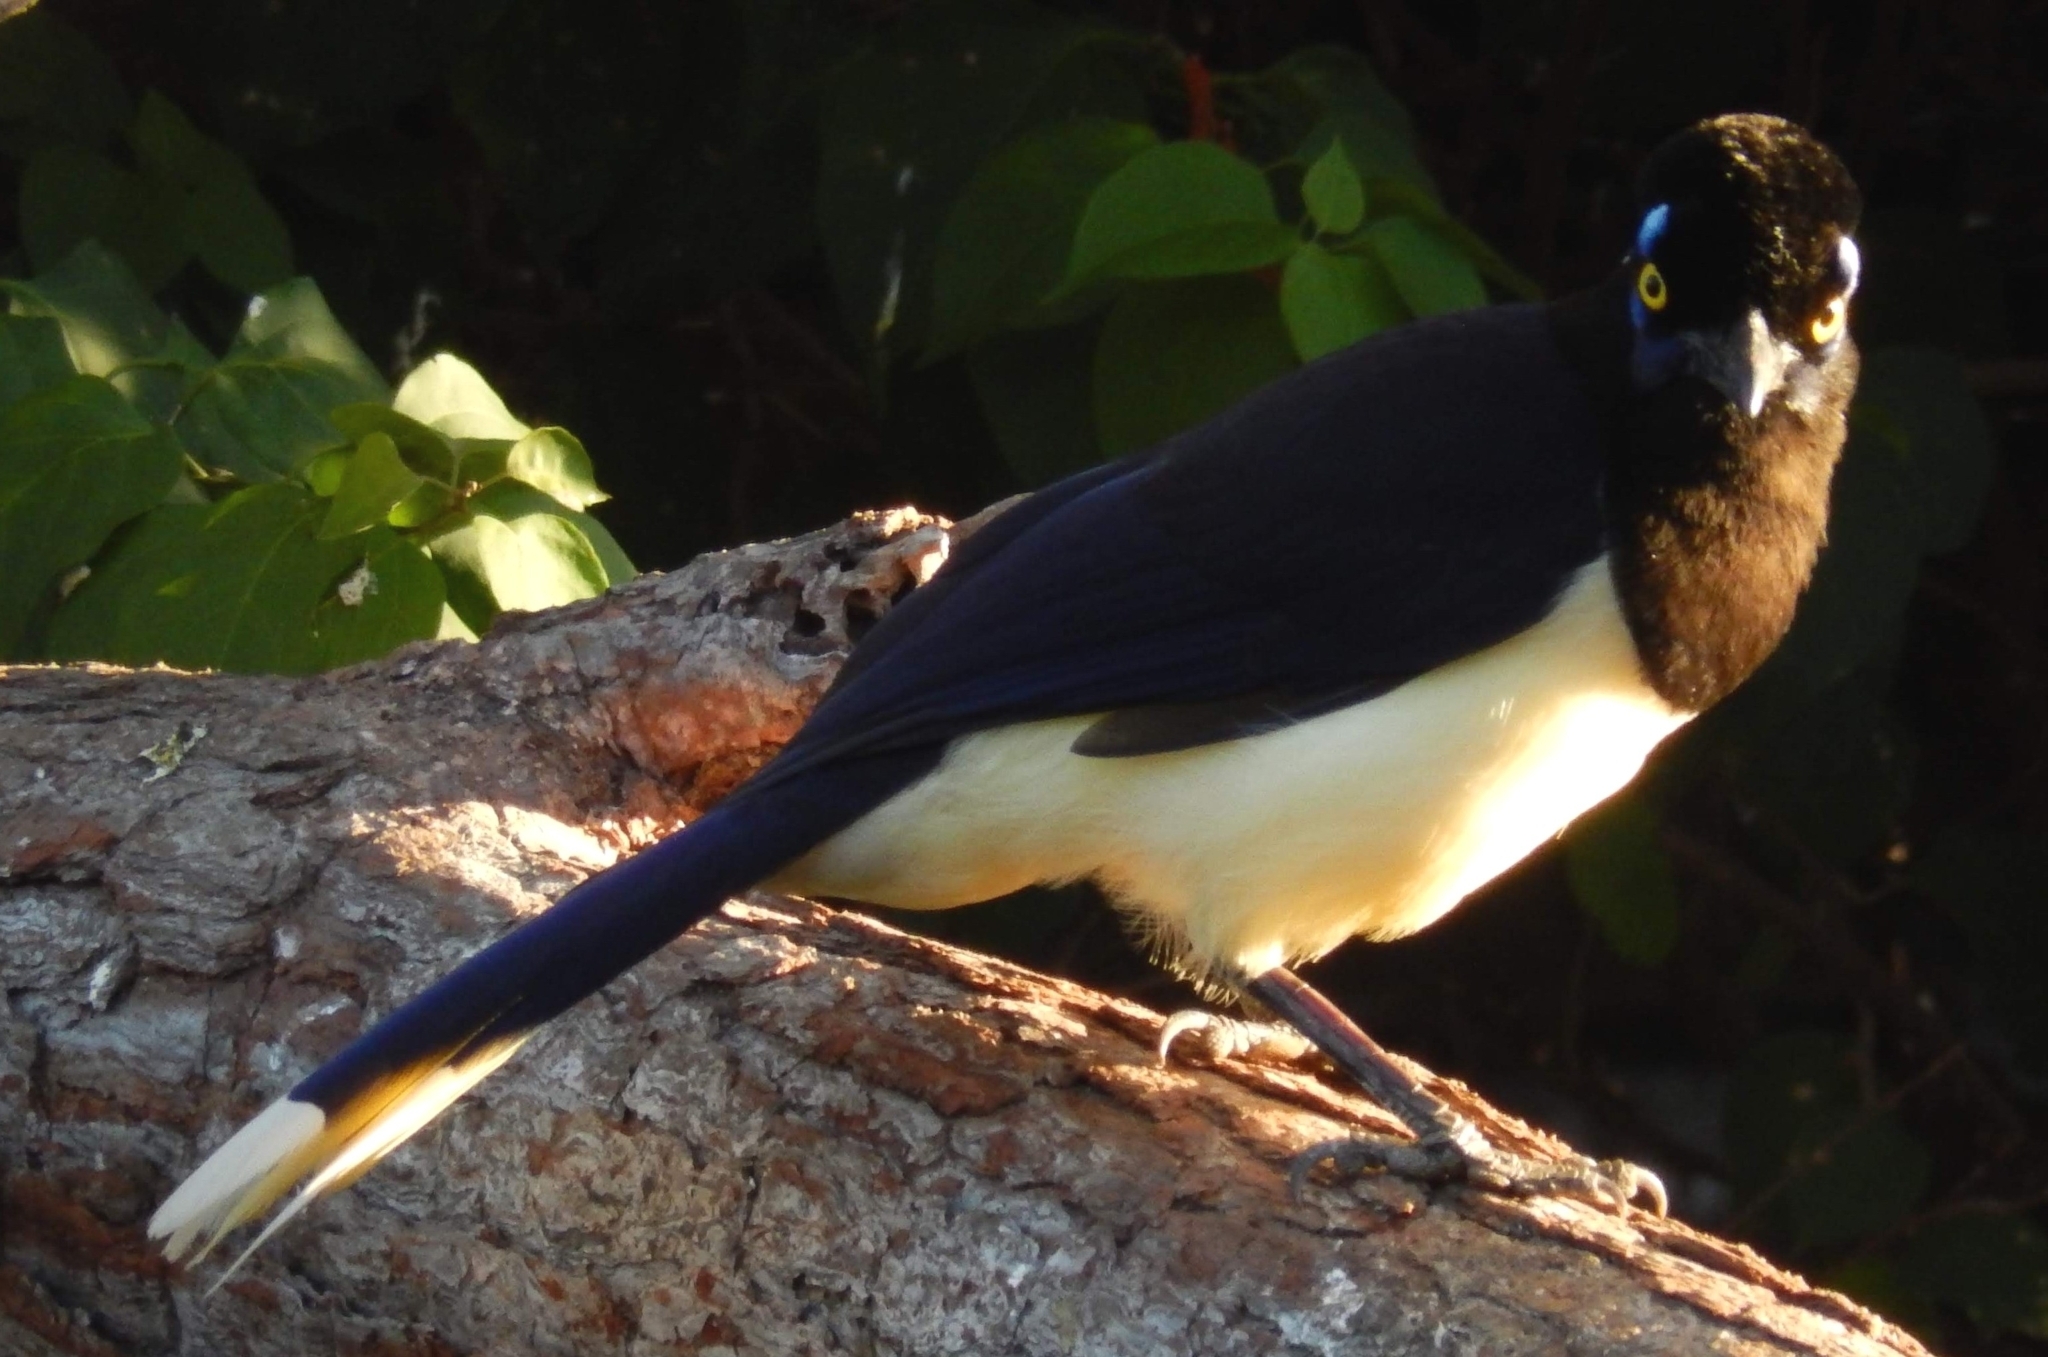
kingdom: Animalia
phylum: Chordata
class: Aves
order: Passeriformes
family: Corvidae
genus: Cyanocorax
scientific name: Cyanocorax chrysops
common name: Plush-crested jay
